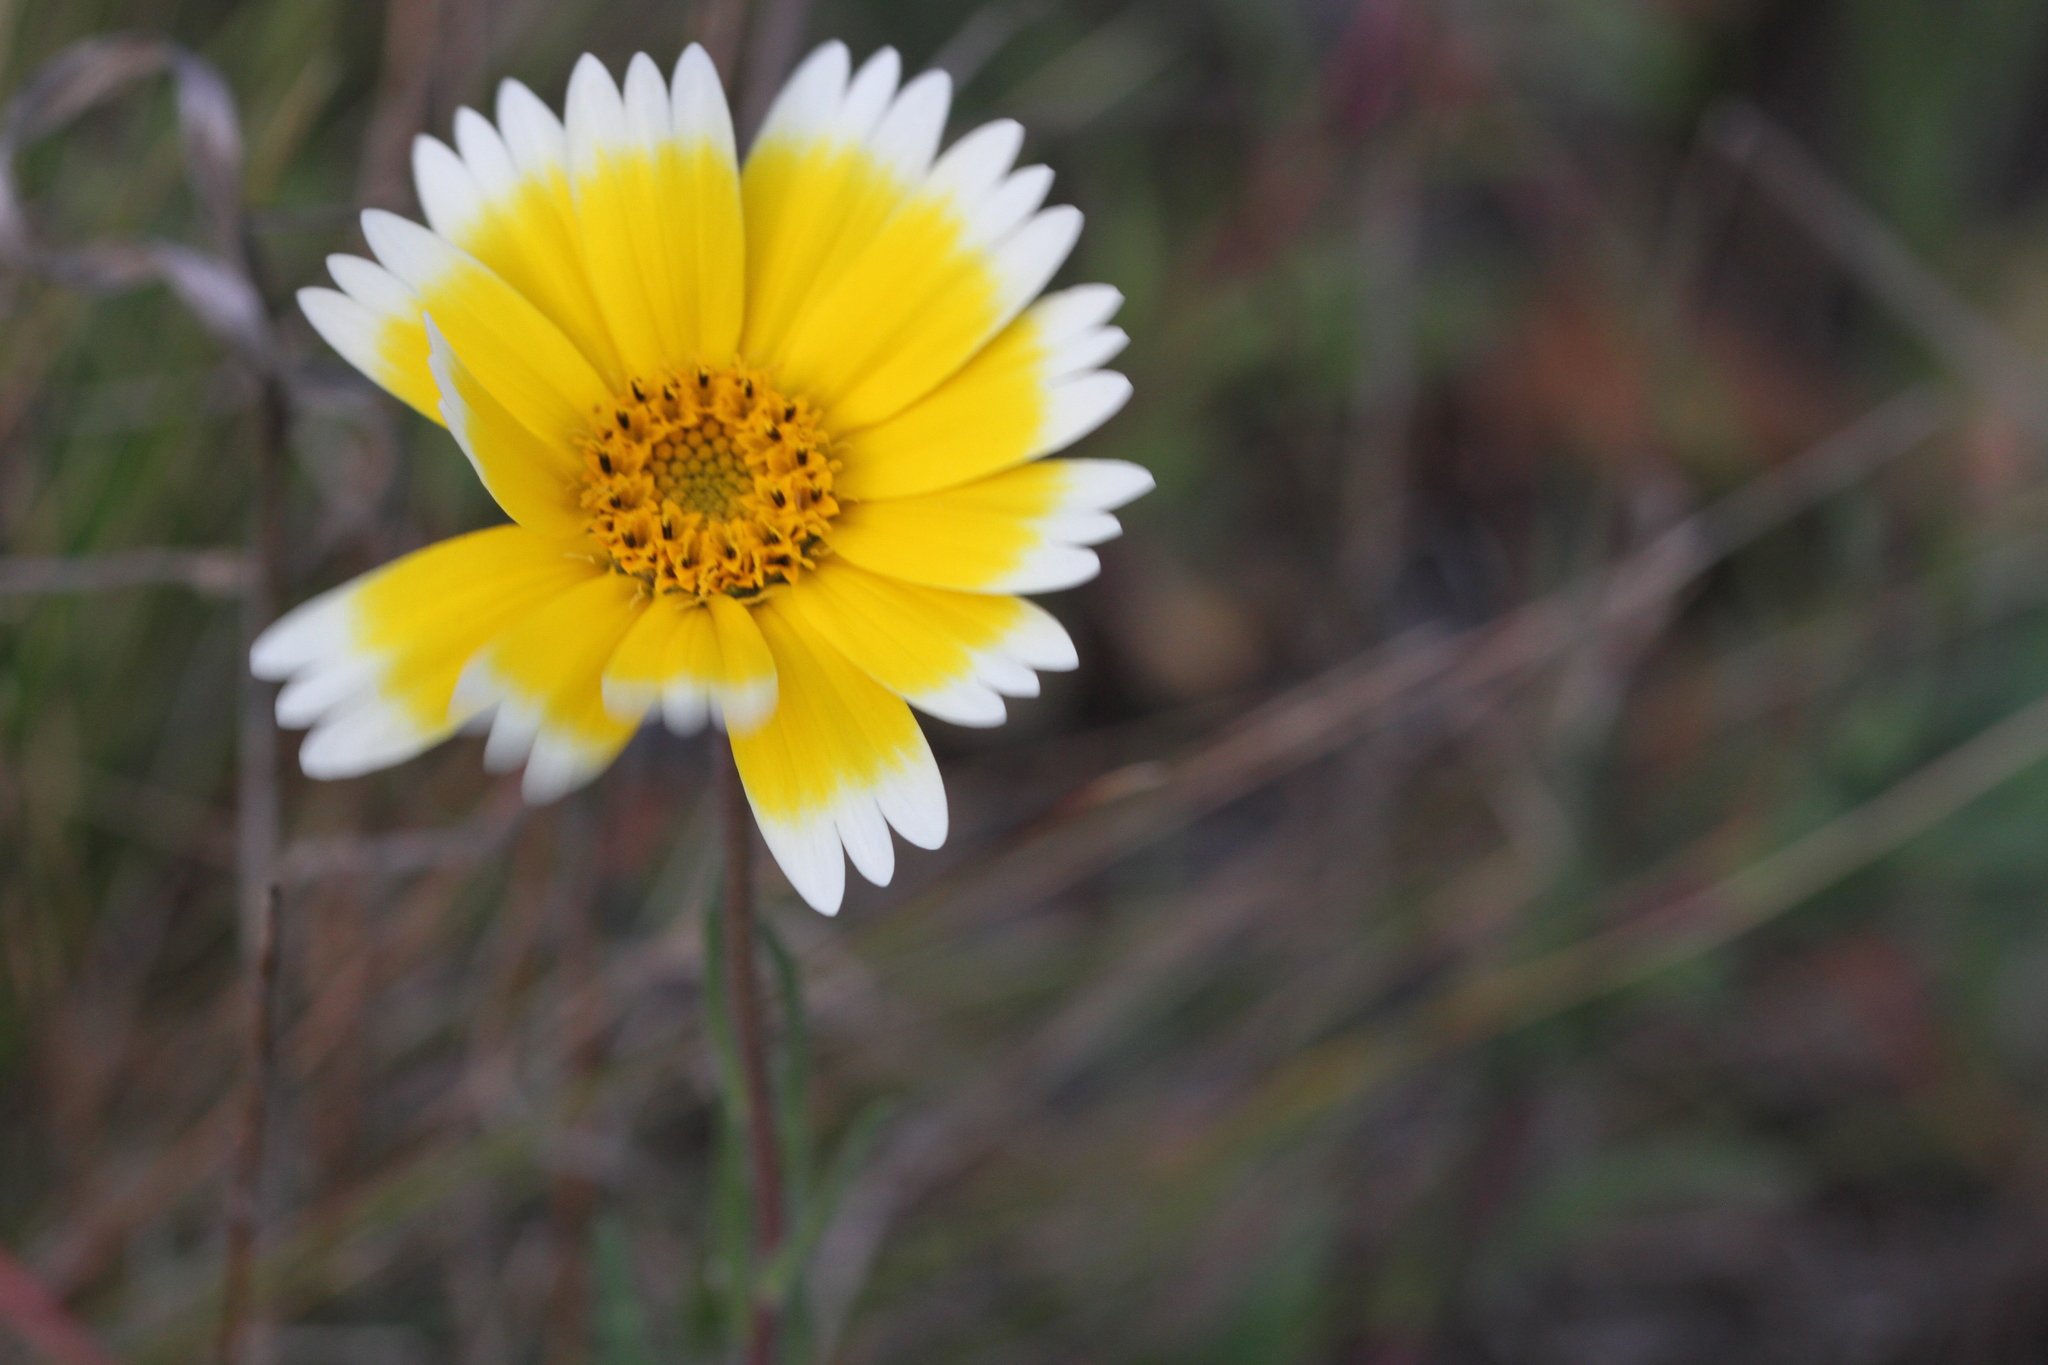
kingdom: Plantae
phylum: Tracheophyta
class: Magnoliopsida
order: Asterales
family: Asteraceae
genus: Layia
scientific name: Layia platyglossa
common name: Tidy-tips
